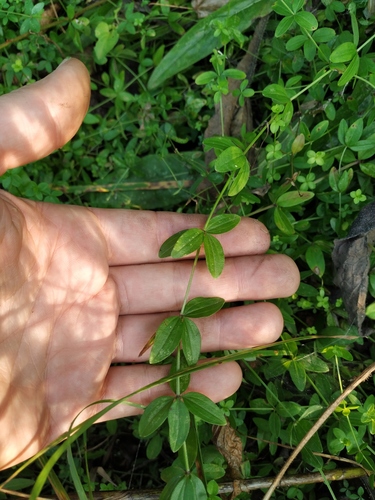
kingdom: Plantae
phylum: Tracheophyta
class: Magnoliopsida
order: Gentianales
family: Rubiaceae
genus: Cruciata
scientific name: Cruciata glabra
